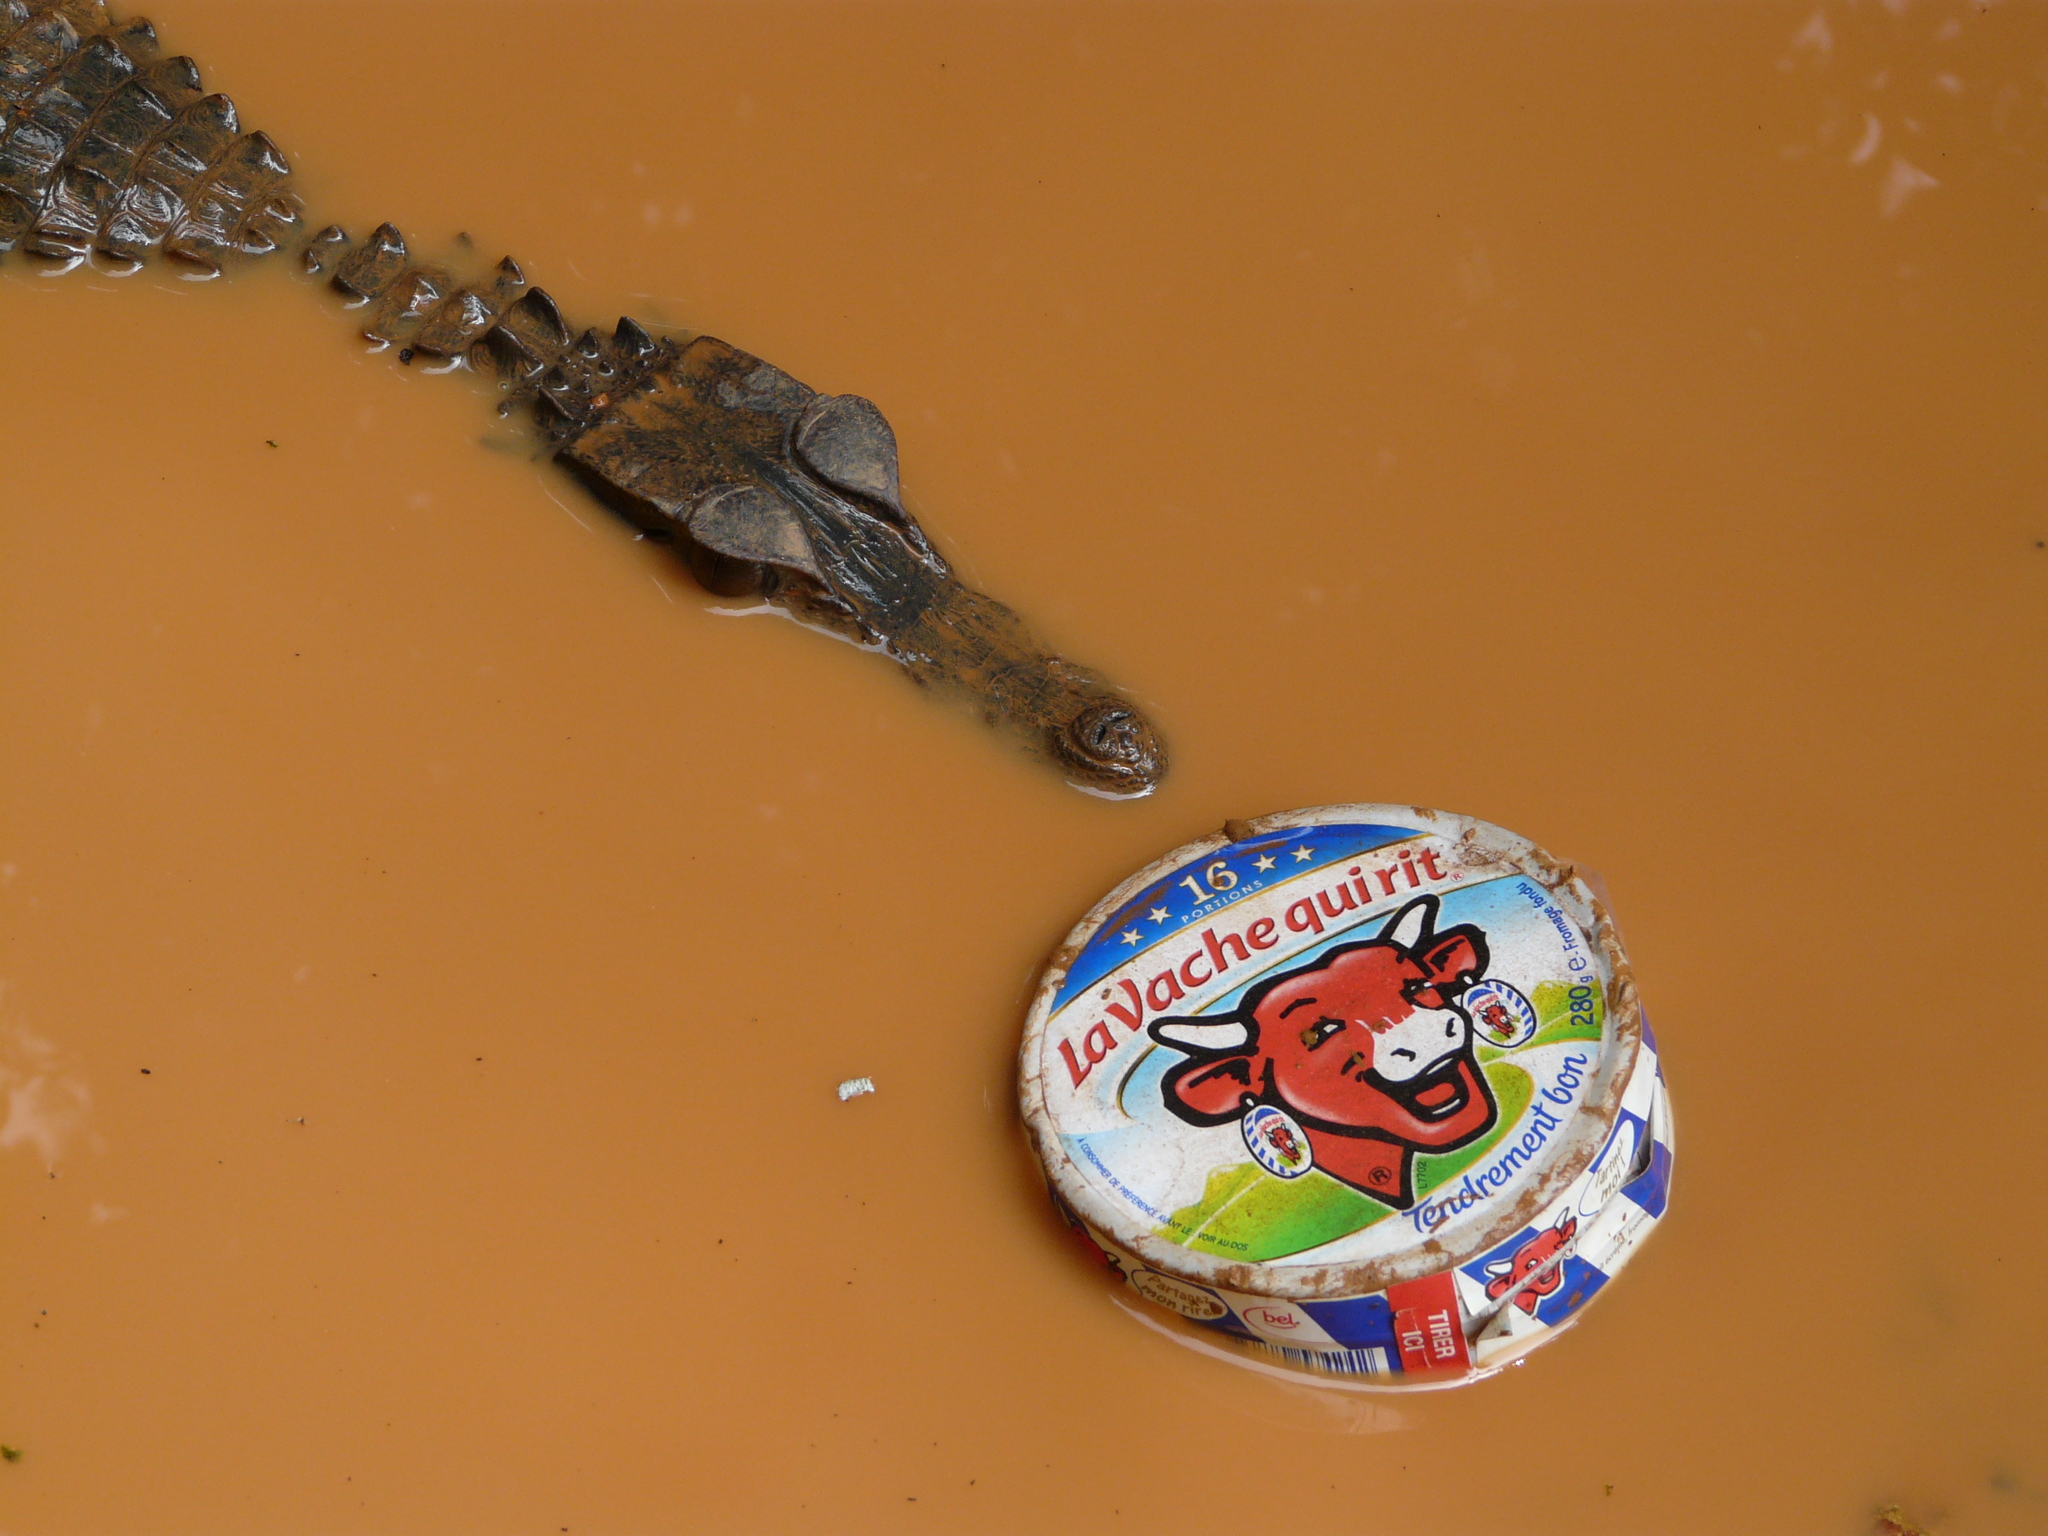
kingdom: Animalia
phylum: Chordata
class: Crocodylia
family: Alligatoridae
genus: Paleosuchus
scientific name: Paleosuchus trigonatus
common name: Schneider's smooth-fronted caiman
